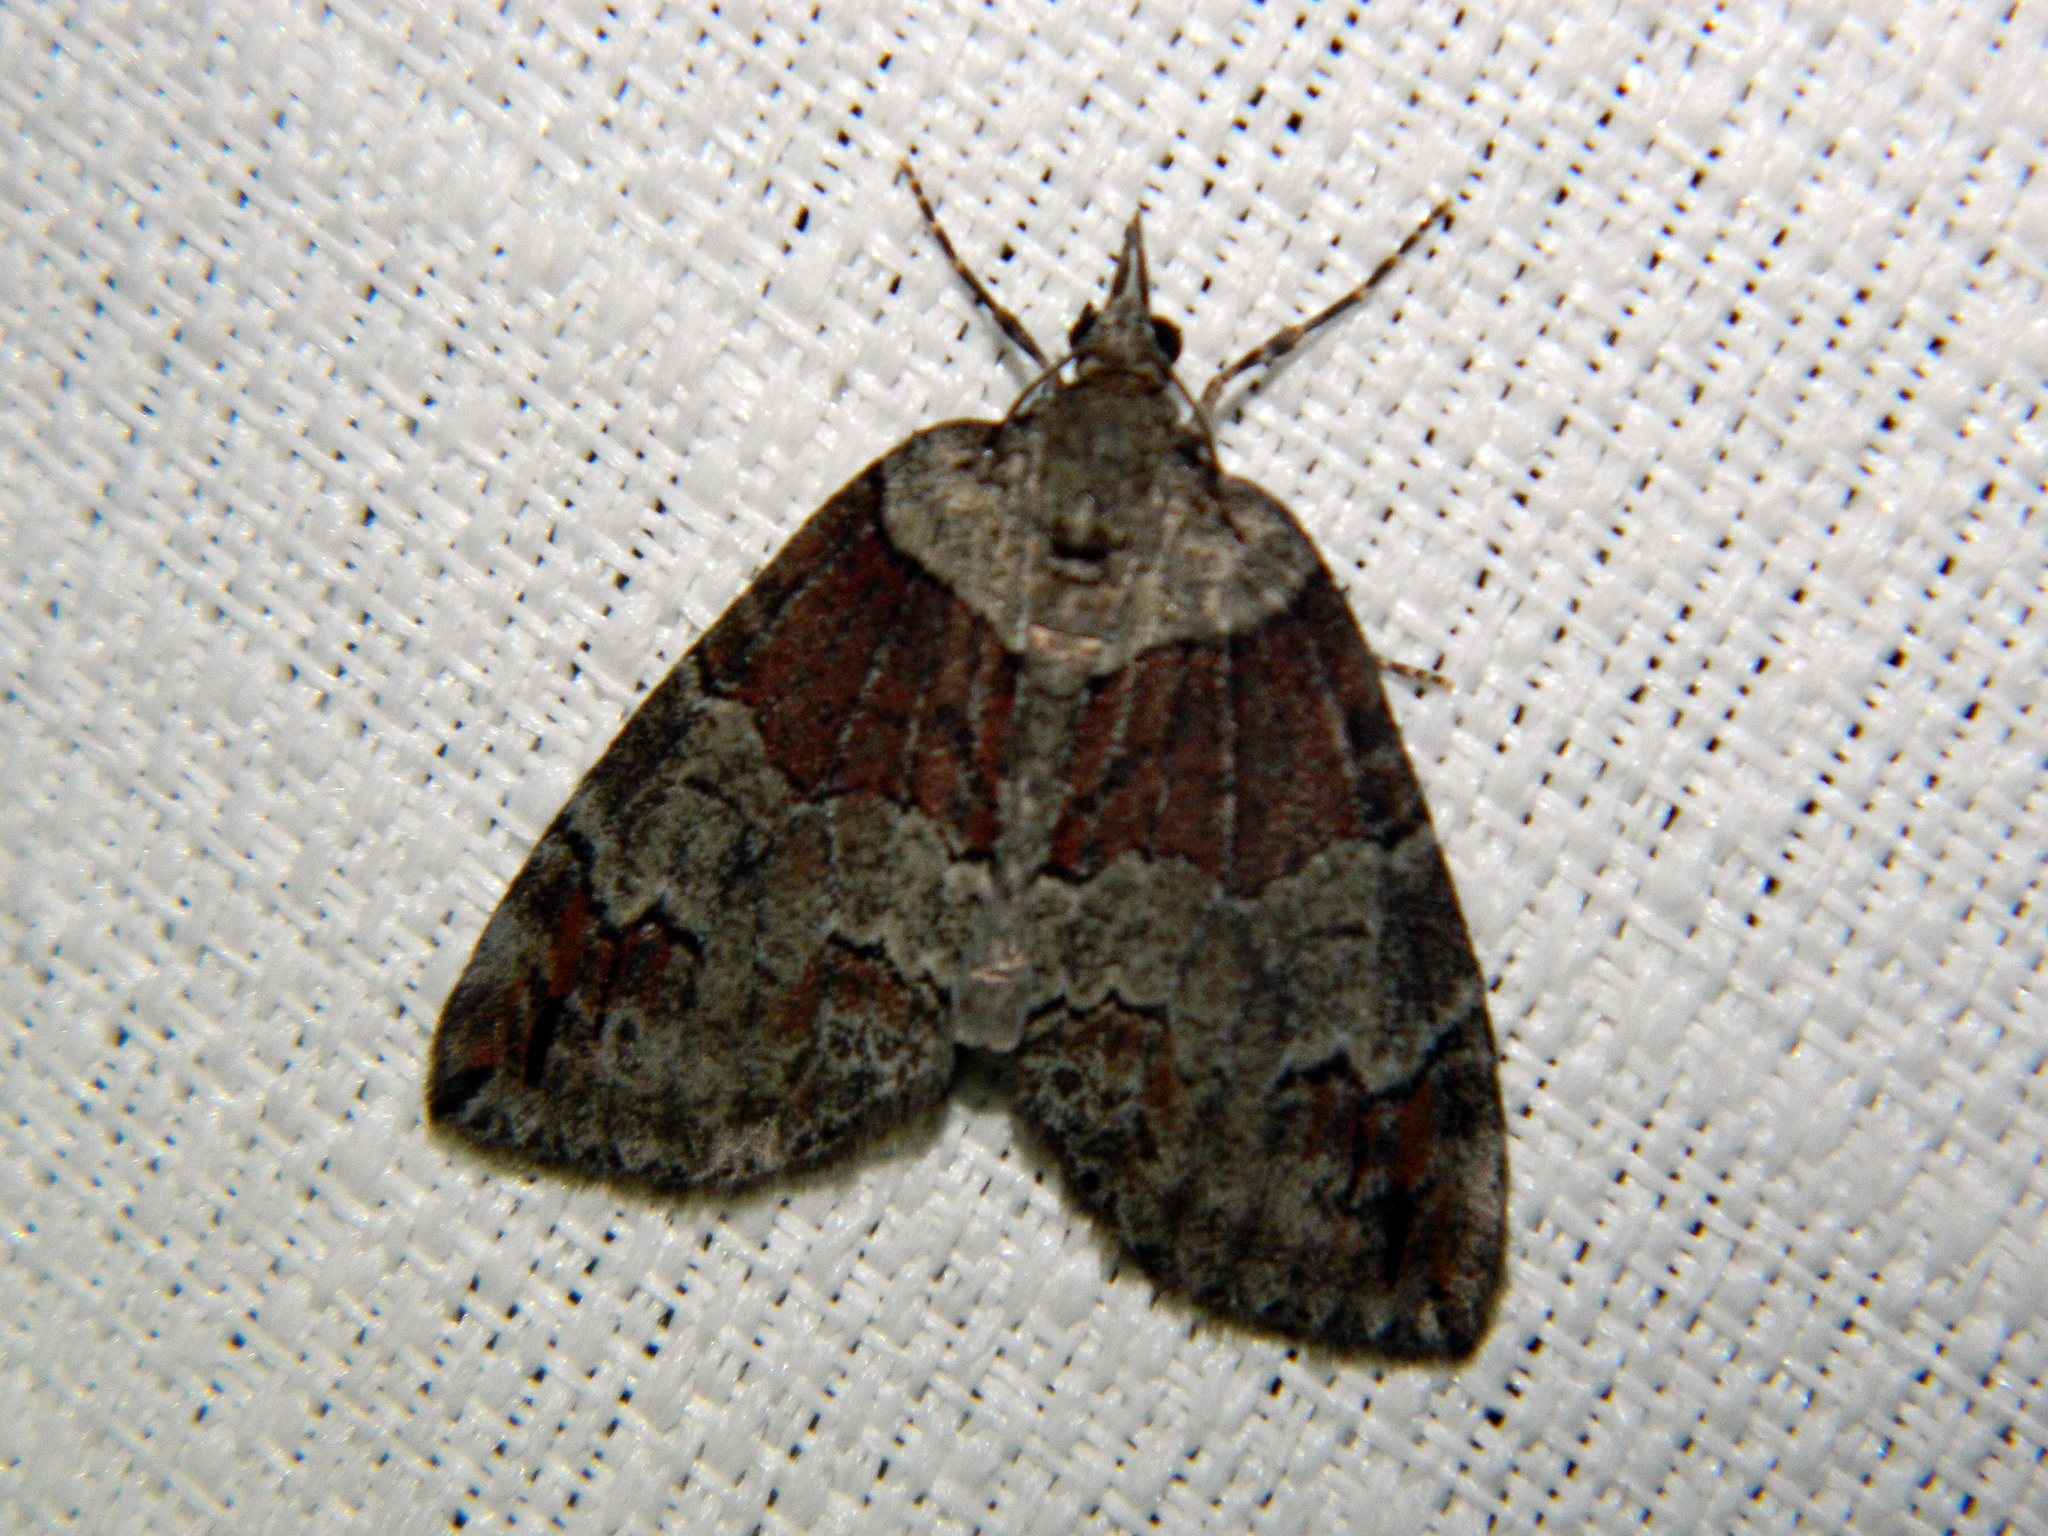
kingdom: Animalia
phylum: Arthropoda
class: Insecta
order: Lepidoptera
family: Geometridae
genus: Hydriomena
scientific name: Hydriomena ruberata
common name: Ruddy highflyer
